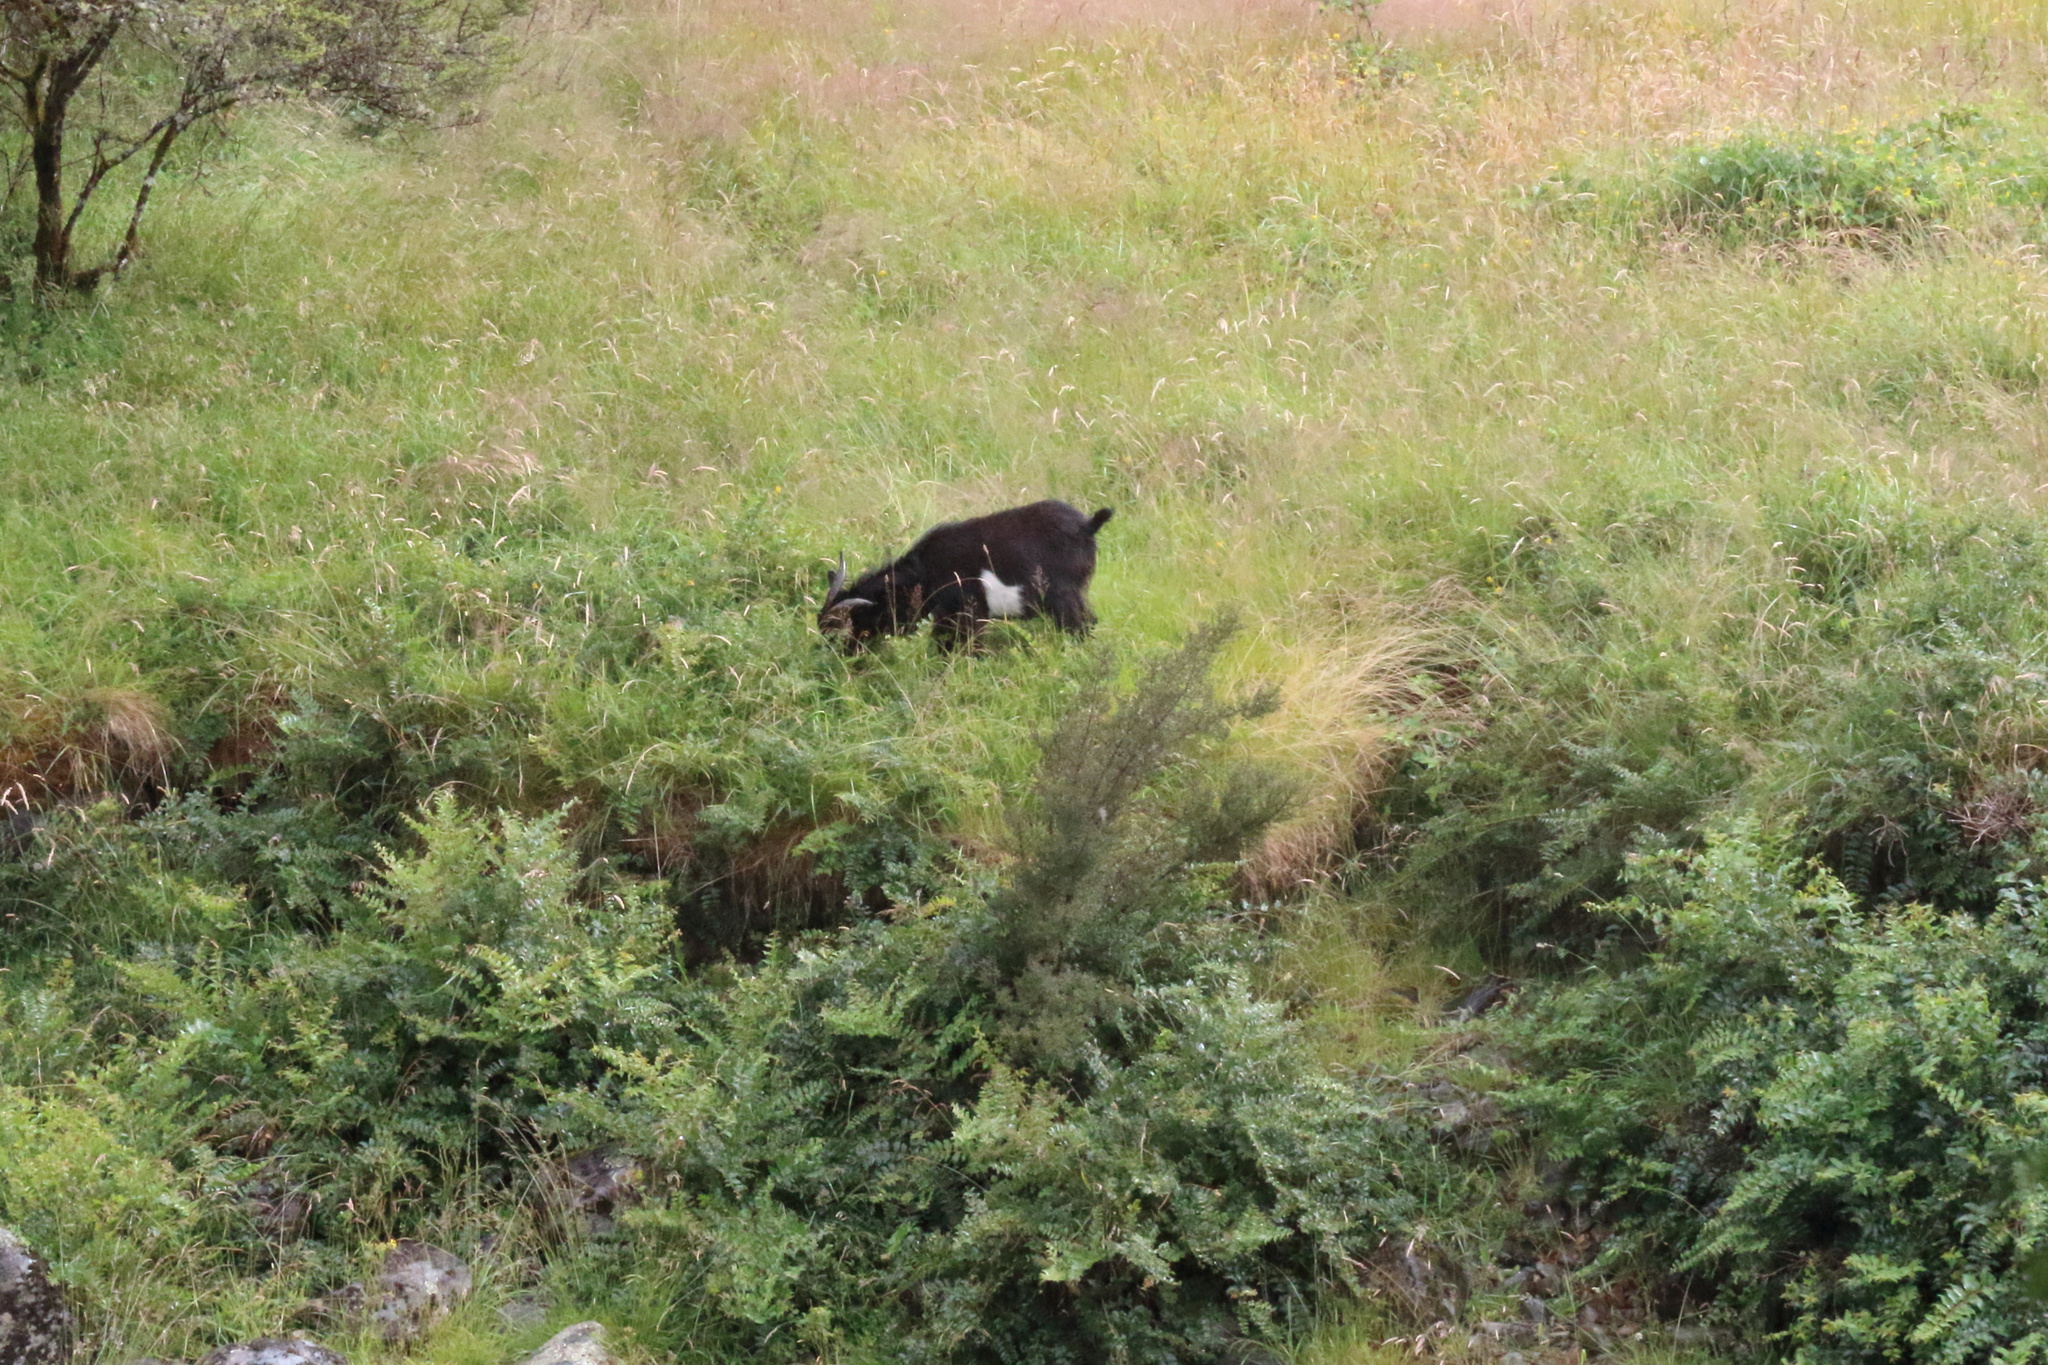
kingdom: Animalia
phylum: Chordata
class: Mammalia
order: Artiodactyla
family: Bovidae
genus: Capra
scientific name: Capra hircus
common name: Domestic goat
